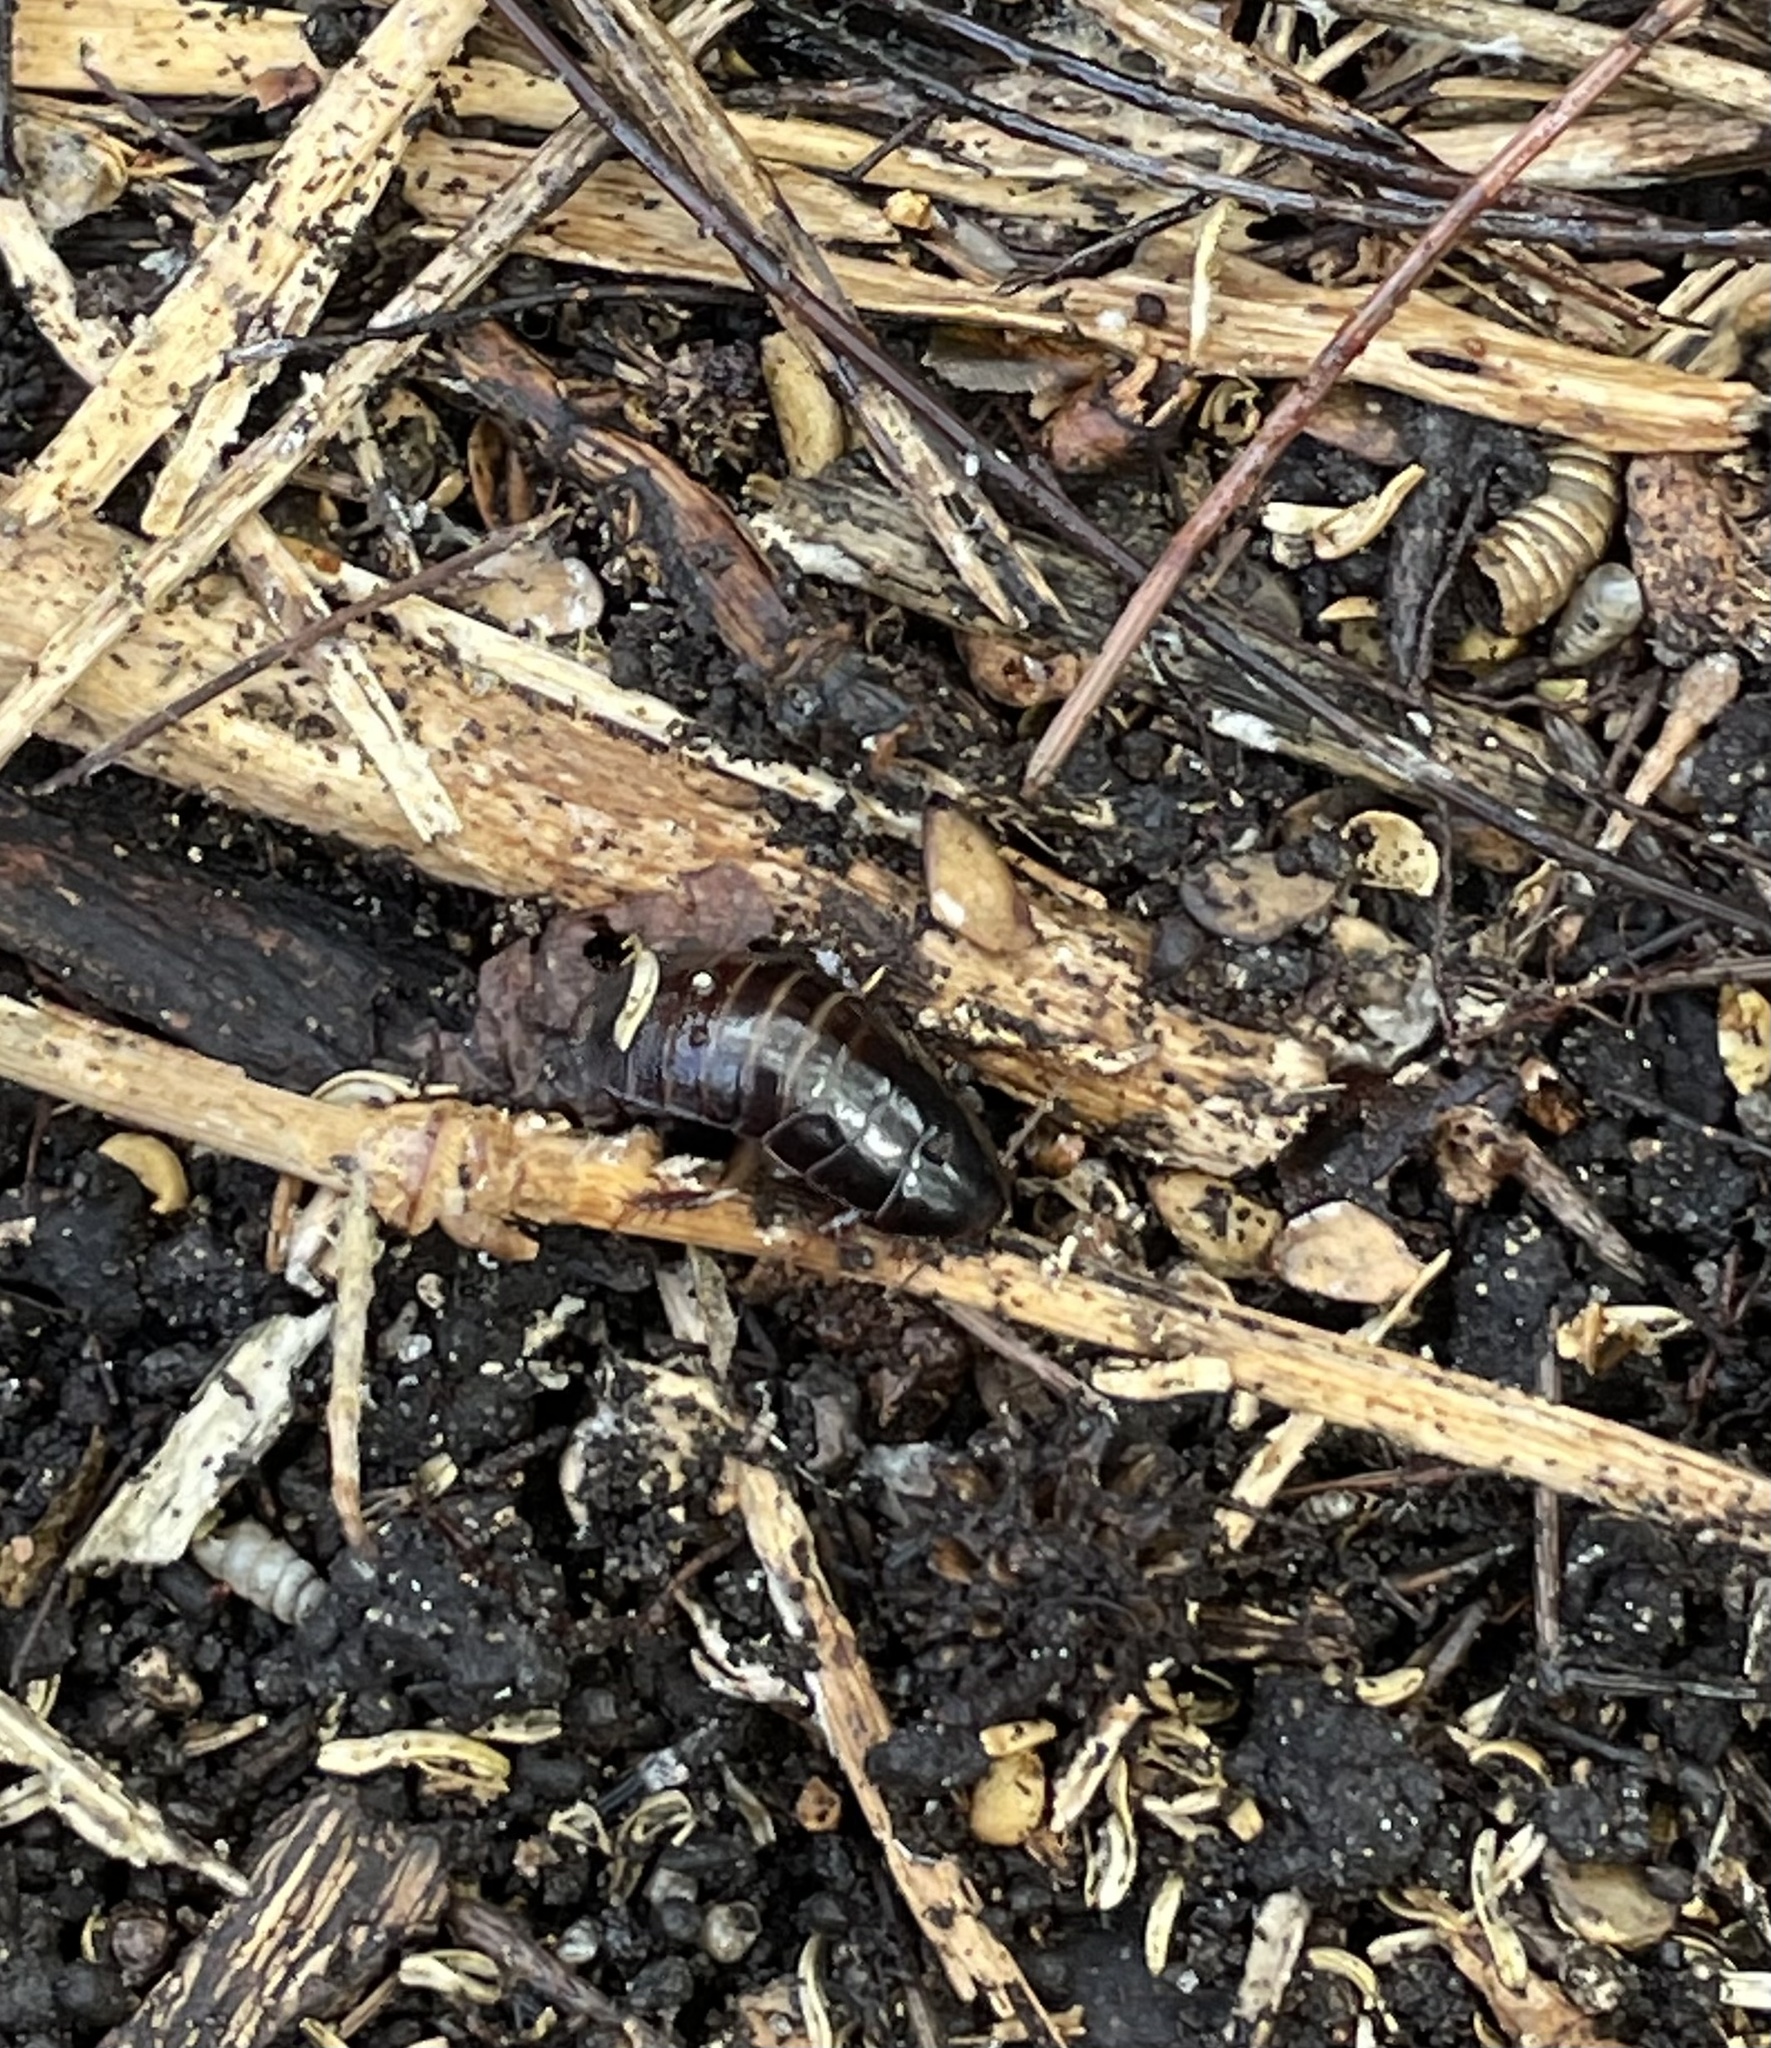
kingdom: Animalia
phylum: Arthropoda
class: Insecta
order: Blattodea
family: Blaberidae
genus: Pycnoscelus
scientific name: Pycnoscelus surinamensis
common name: Surinam cockroach
